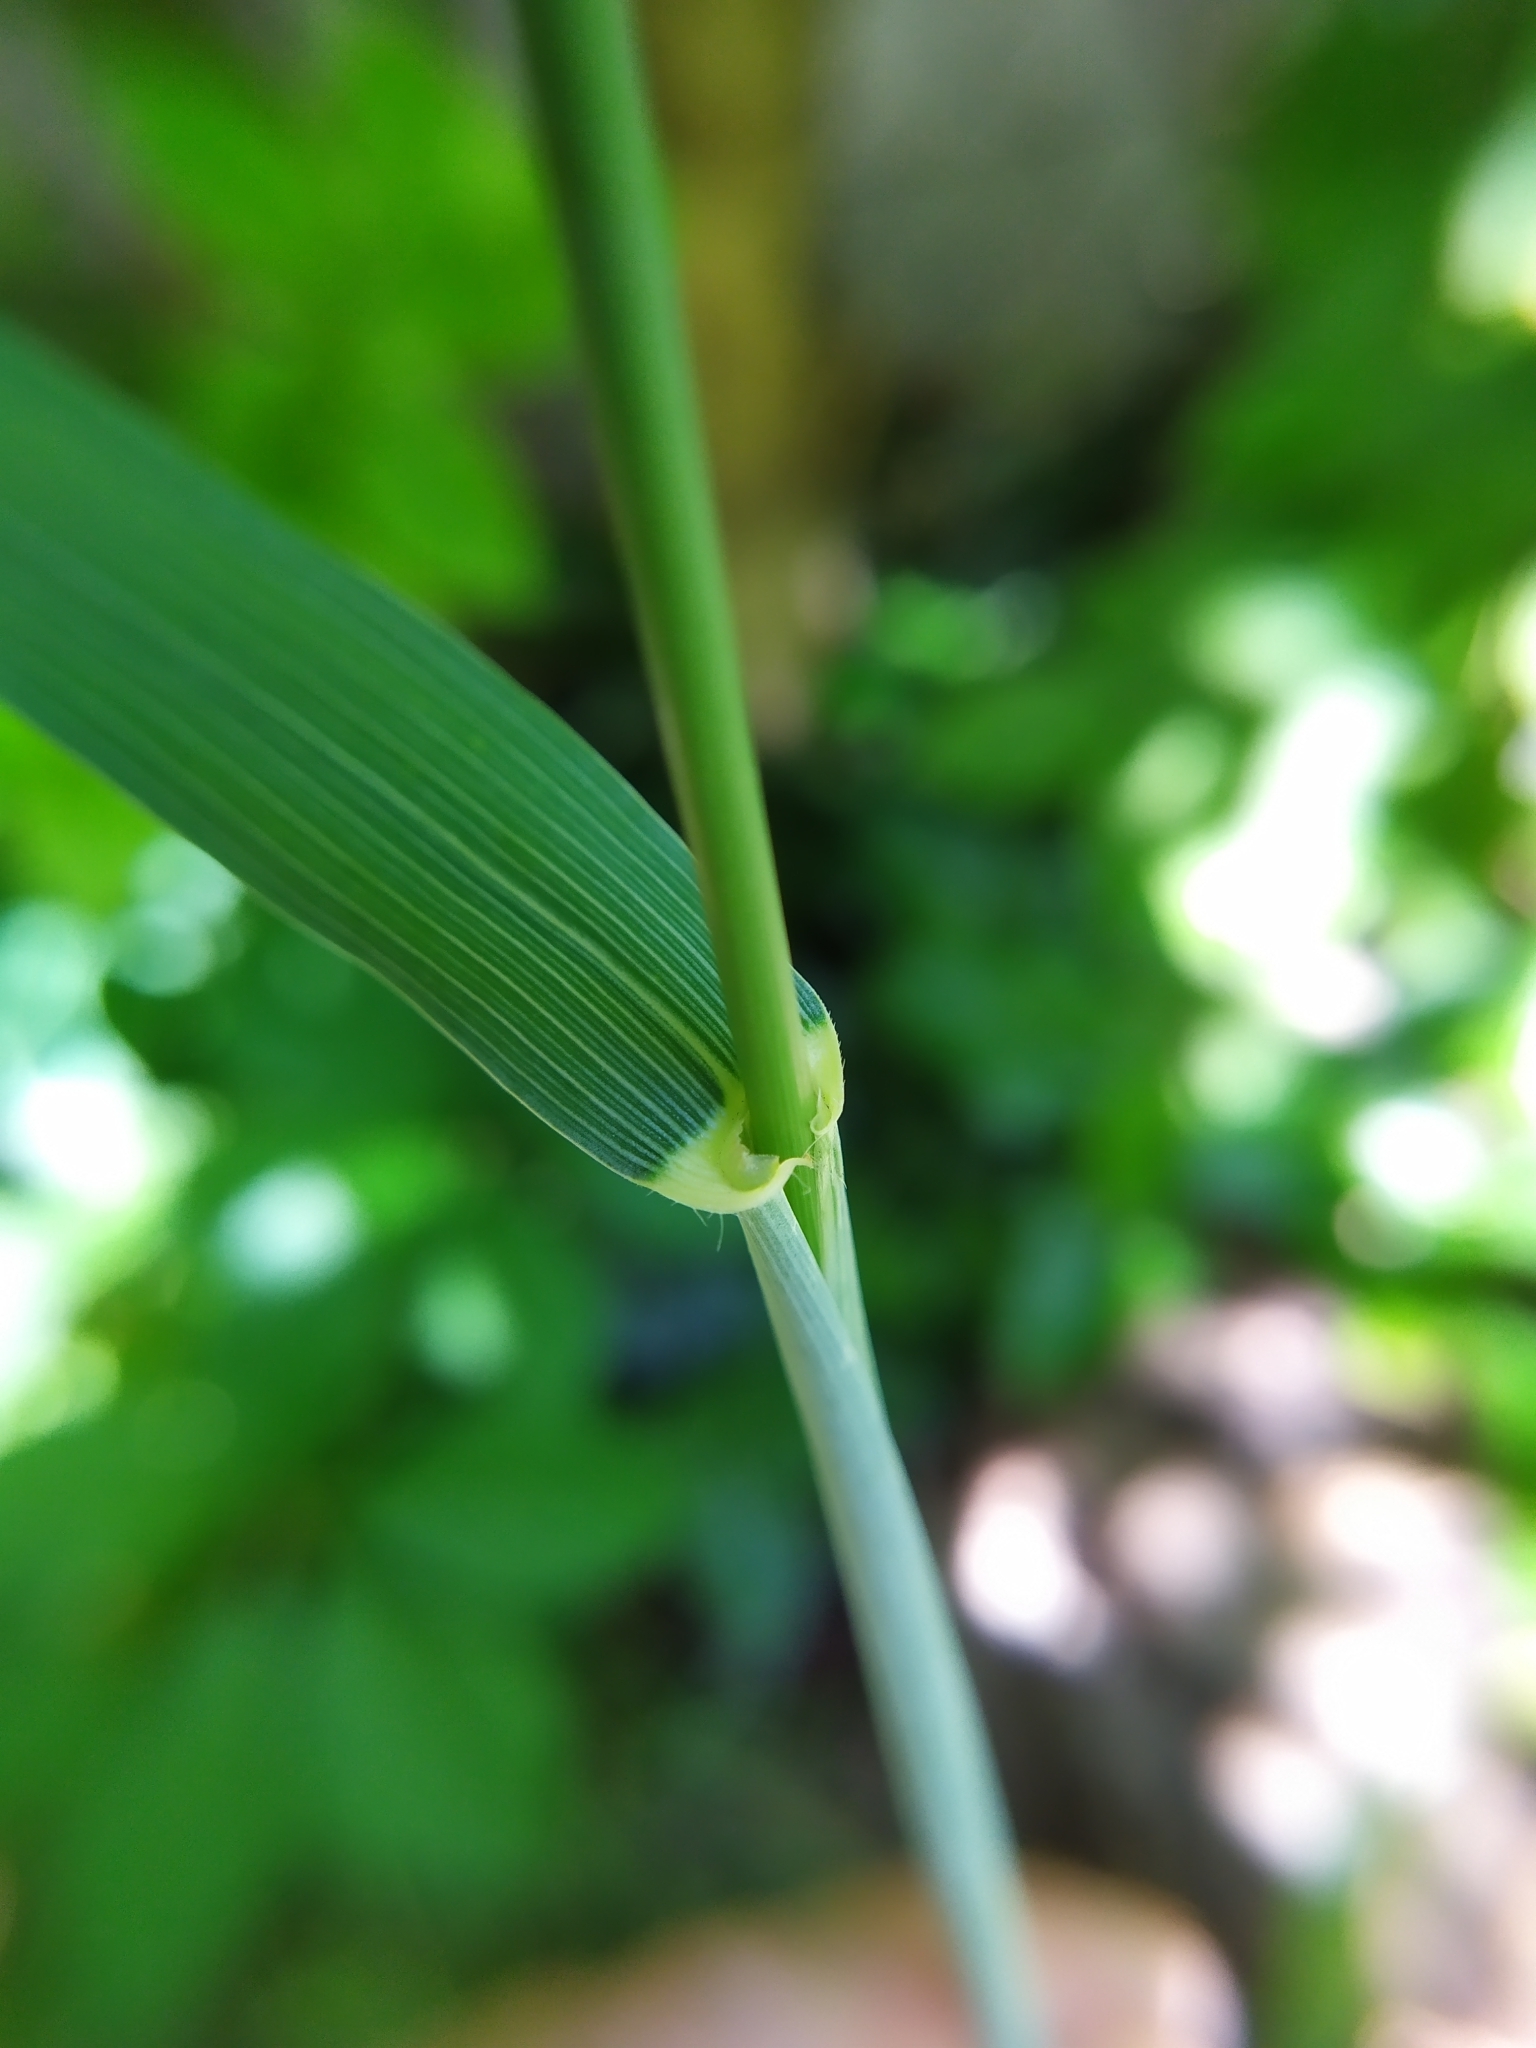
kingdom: Plantae
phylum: Tracheophyta
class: Liliopsida
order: Poales
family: Poaceae
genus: Triticum
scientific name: Triticum aestivum
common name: Common wheat
